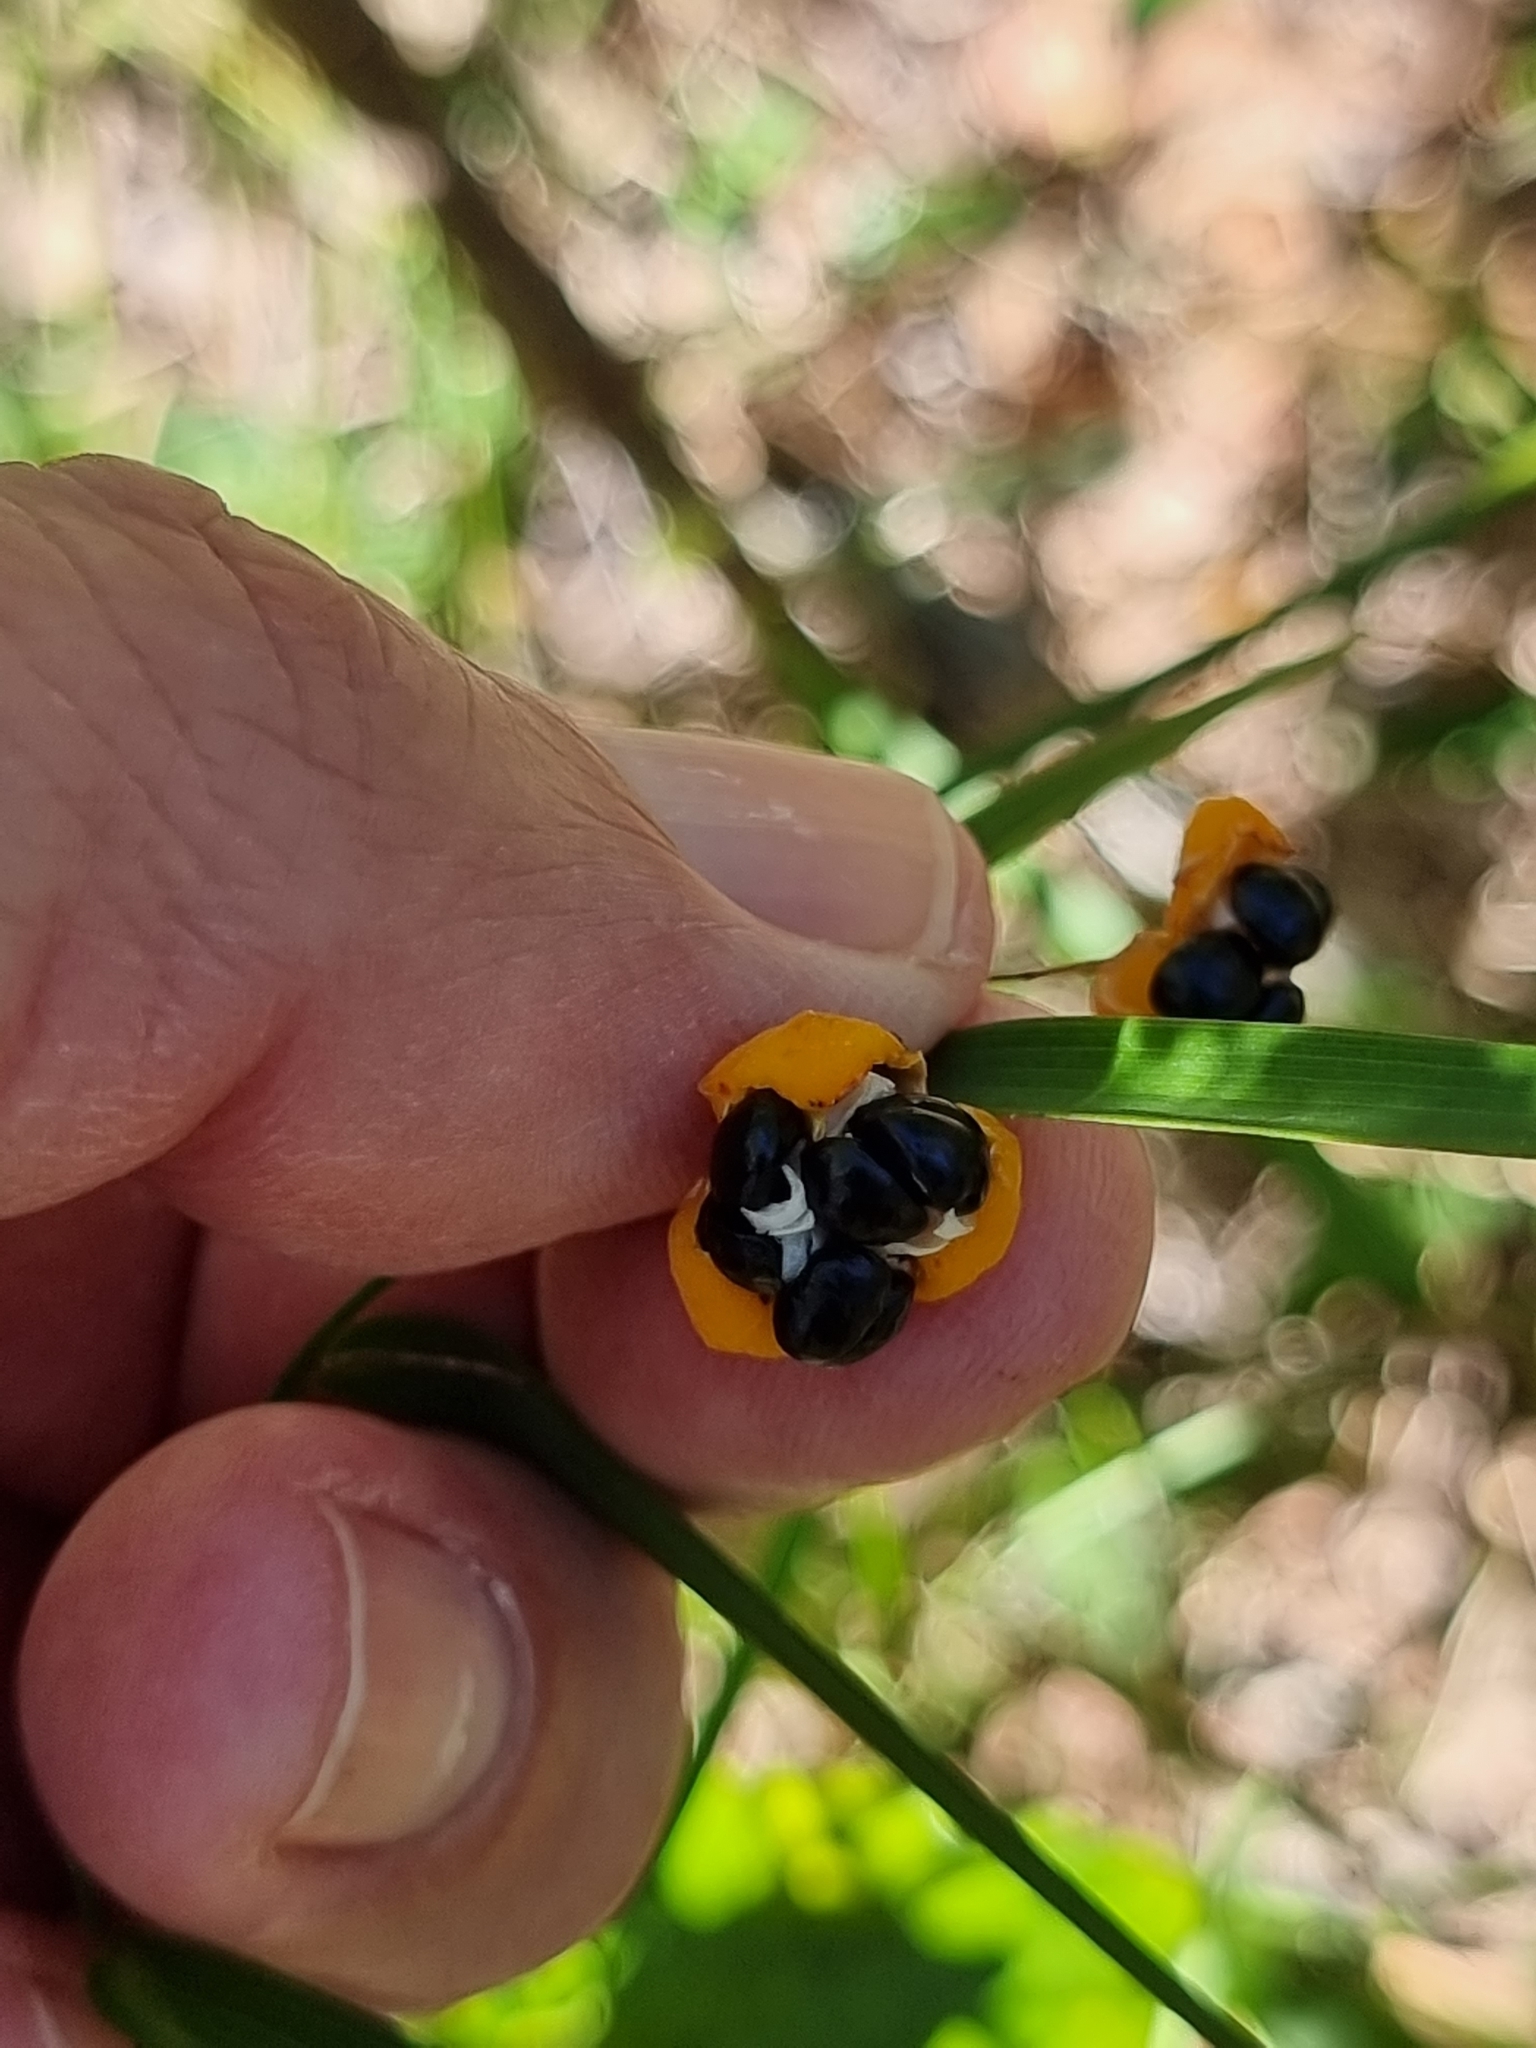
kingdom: Plantae
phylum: Tracheophyta
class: Liliopsida
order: Asparagales
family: Asparagaceae
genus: Eustrephus
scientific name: Eustrephus latifolius
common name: Orangevine
